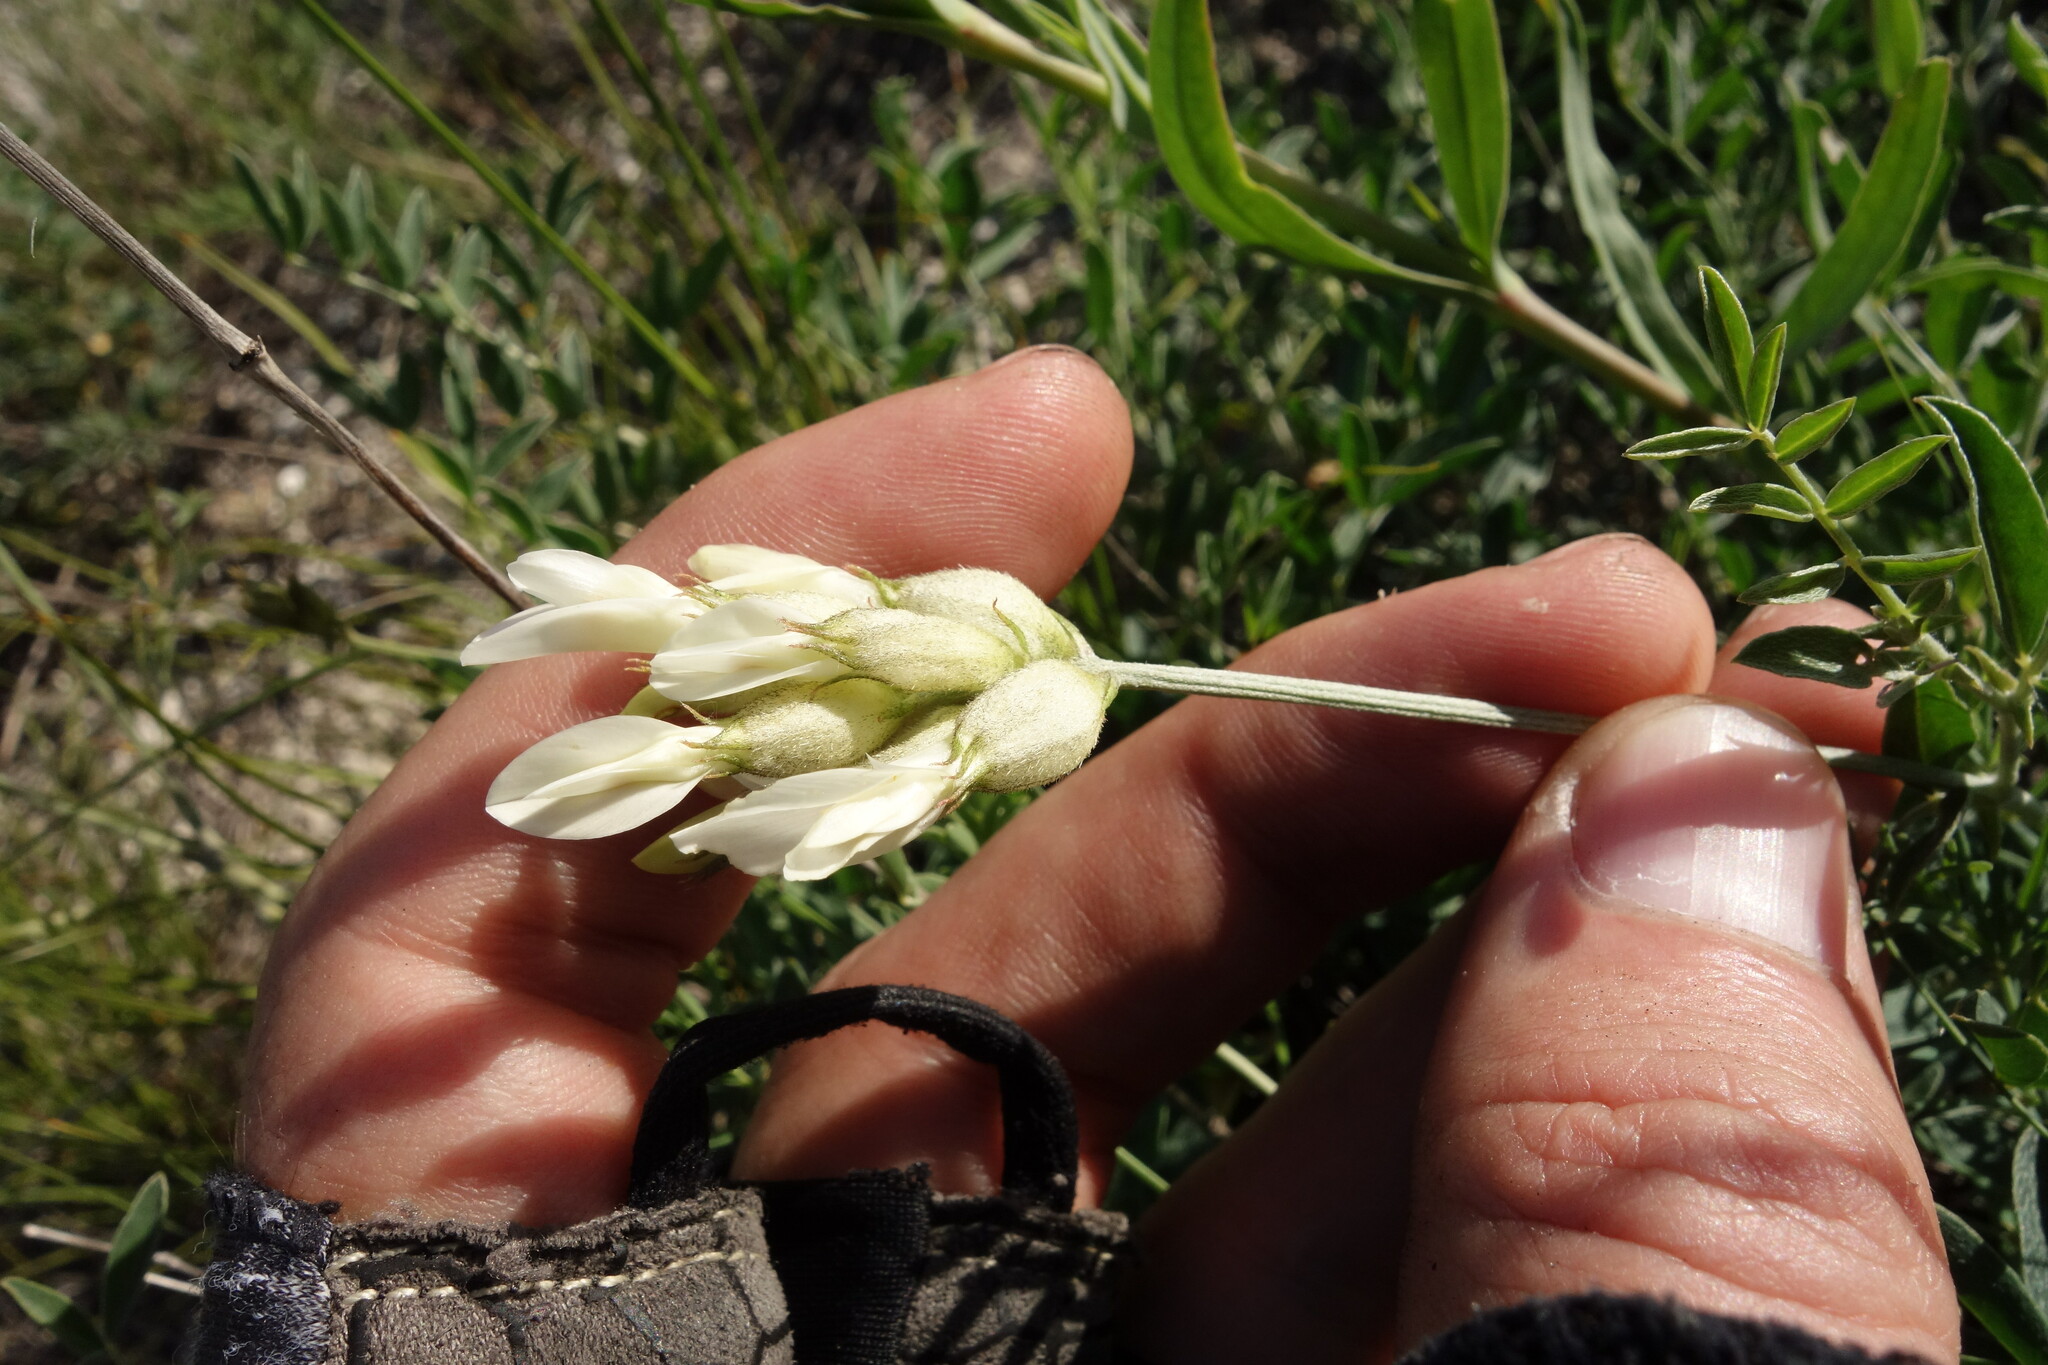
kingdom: Plantae
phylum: Tracheophyta
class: Magnoliopsida
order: Fabales
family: Fabaceae
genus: Astragalus
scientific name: Astragalus albicaulis
